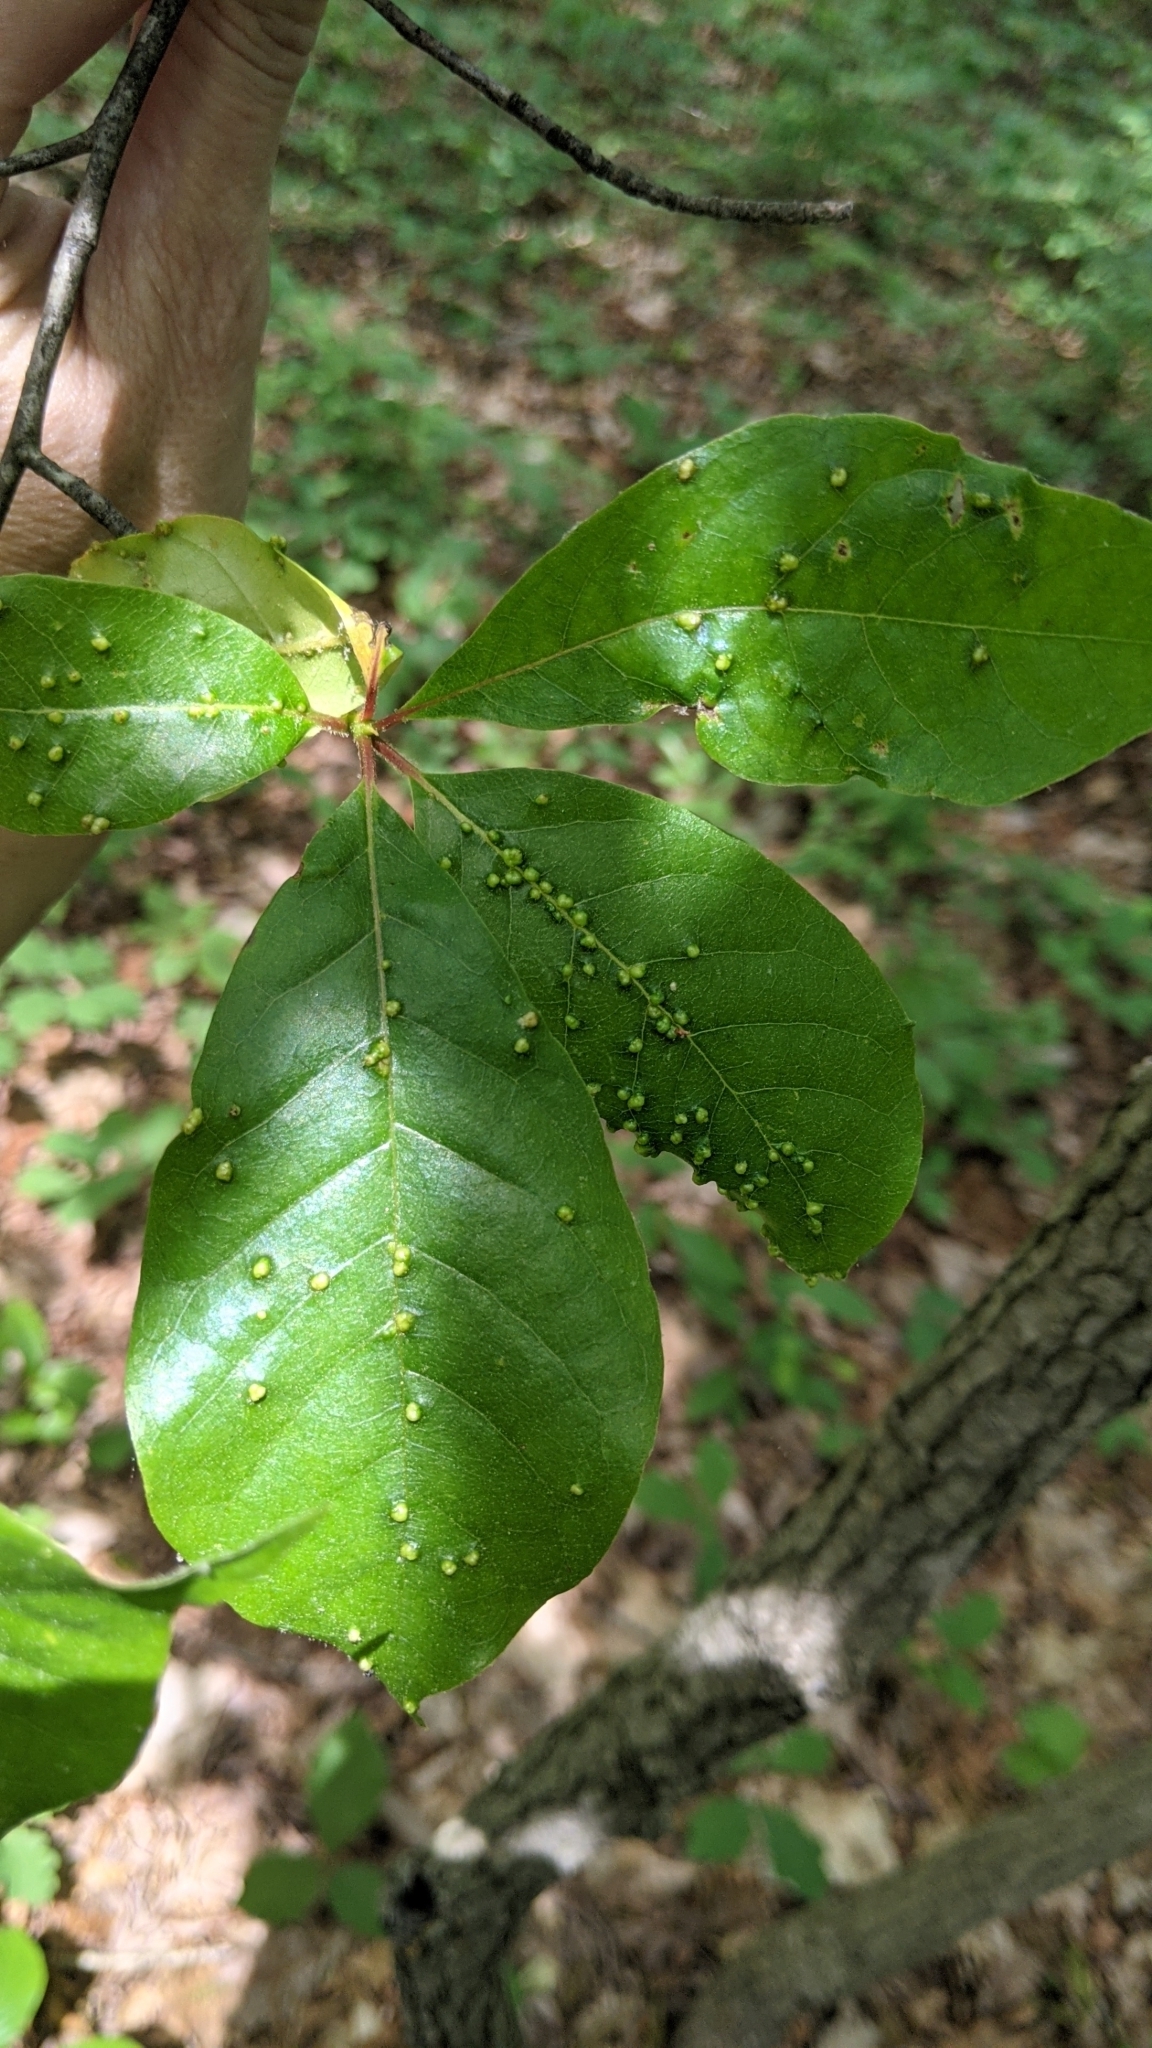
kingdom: Animalia
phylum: Arthropoda
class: Arachnida
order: Trombidiformes
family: Eriophyidae
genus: Aceria
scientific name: Aceria
